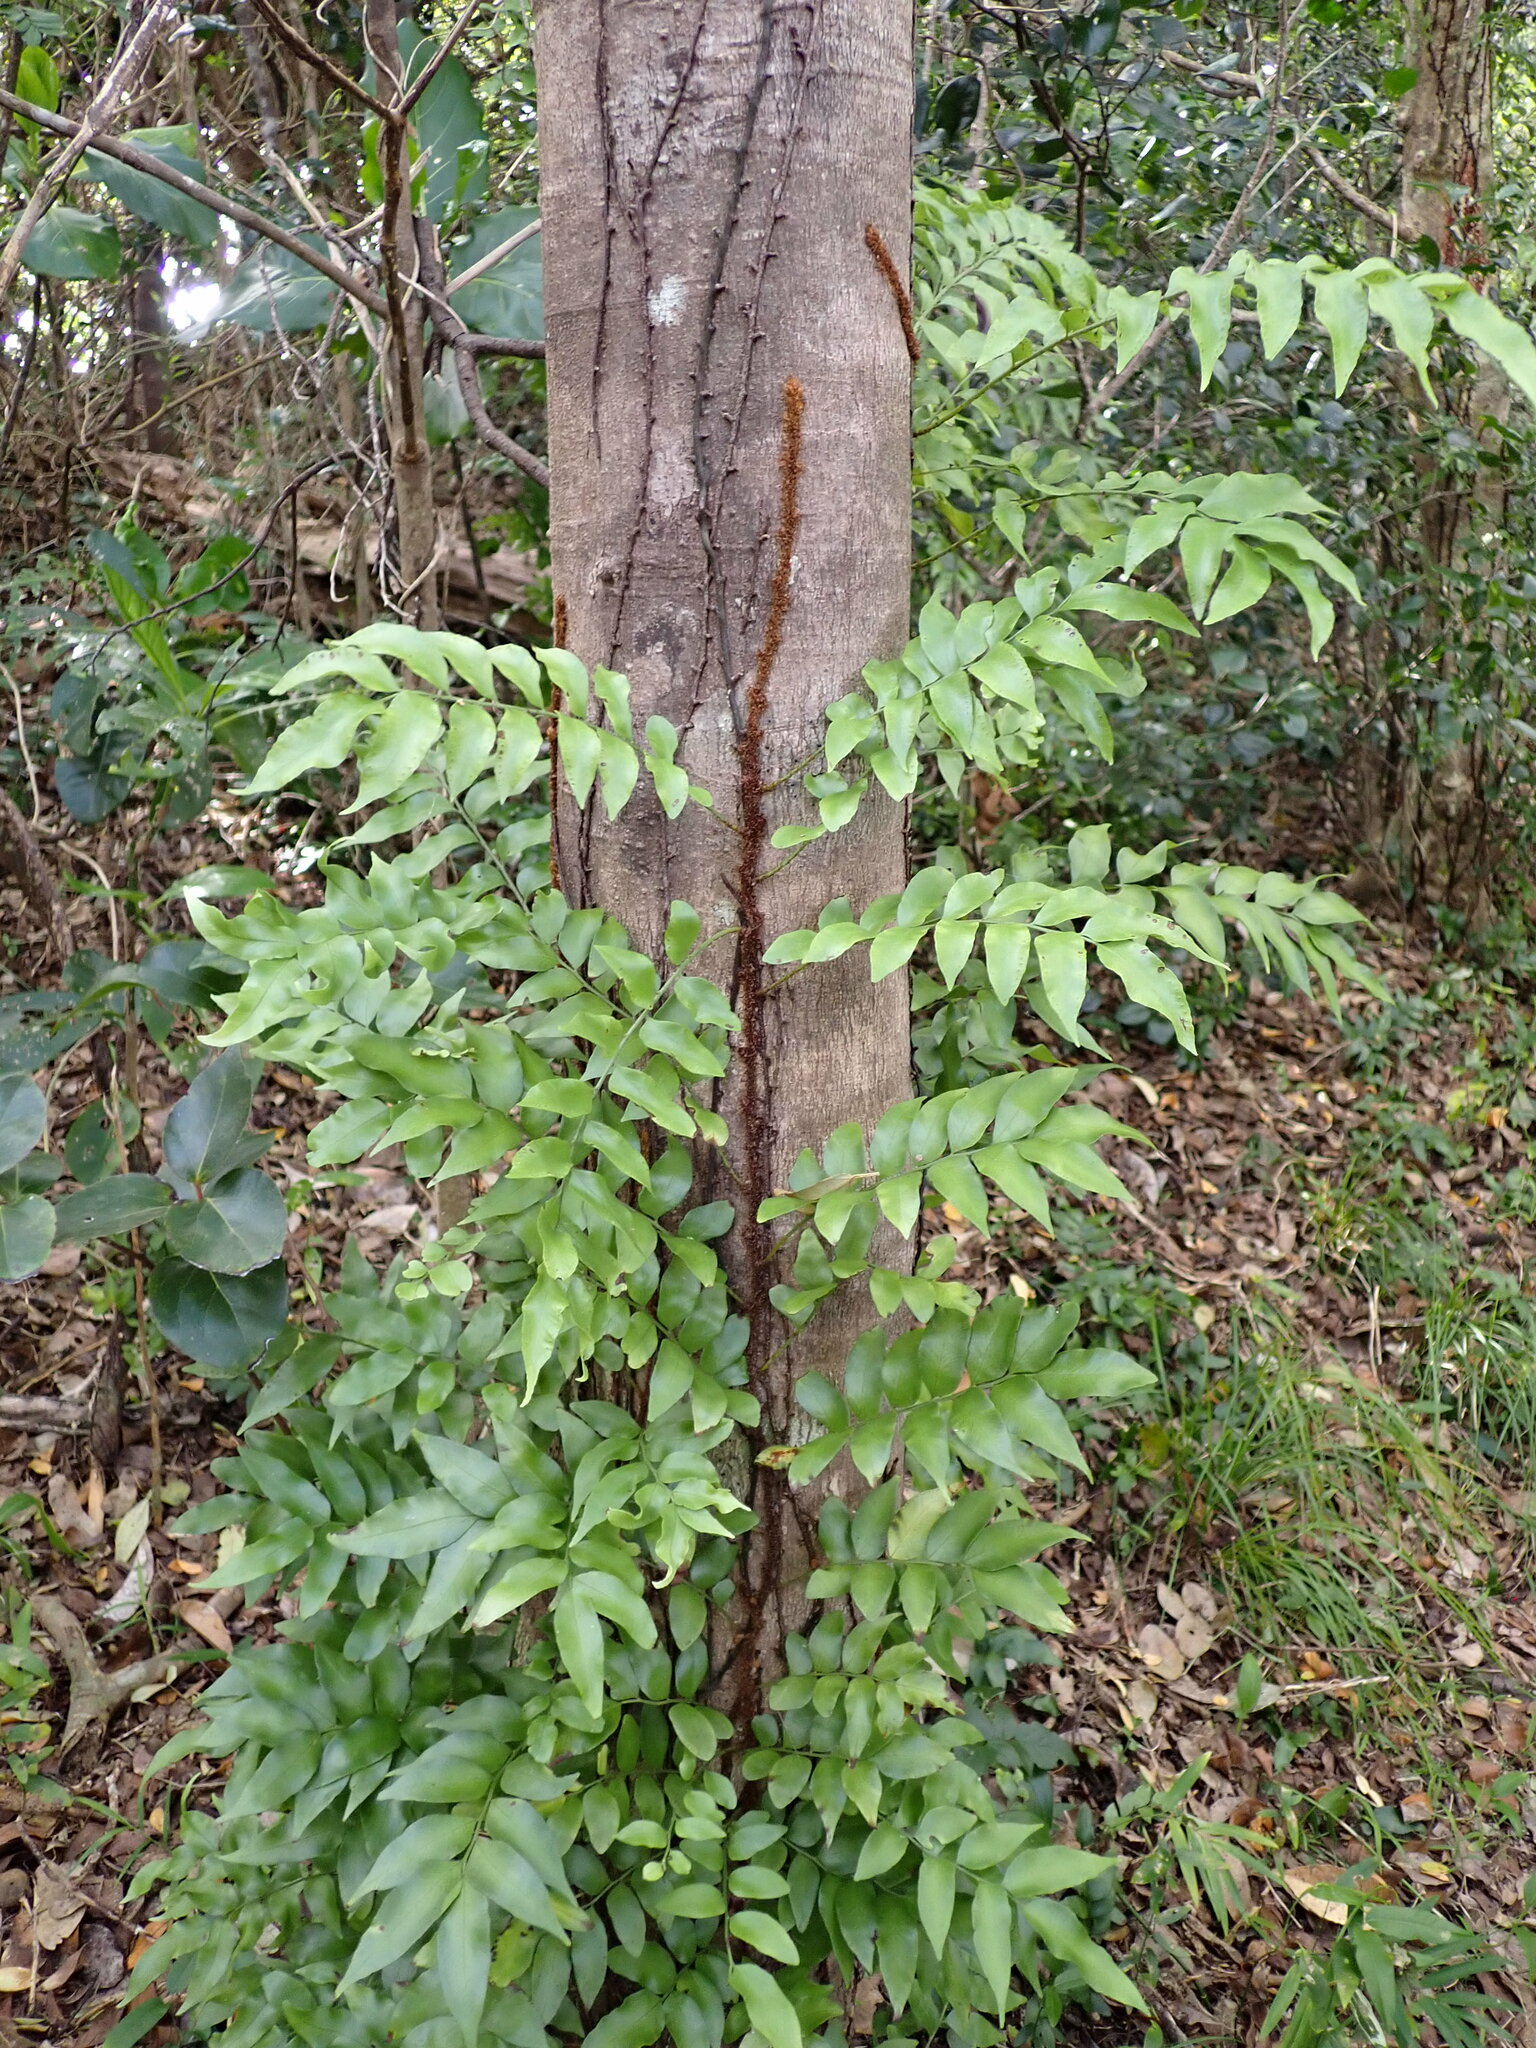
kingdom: Plantae
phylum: Tracheophyta
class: Polypodiopsida
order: Polypodiales
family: Tectariaceae
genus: Arthropteris
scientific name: Arthropteris tenella
